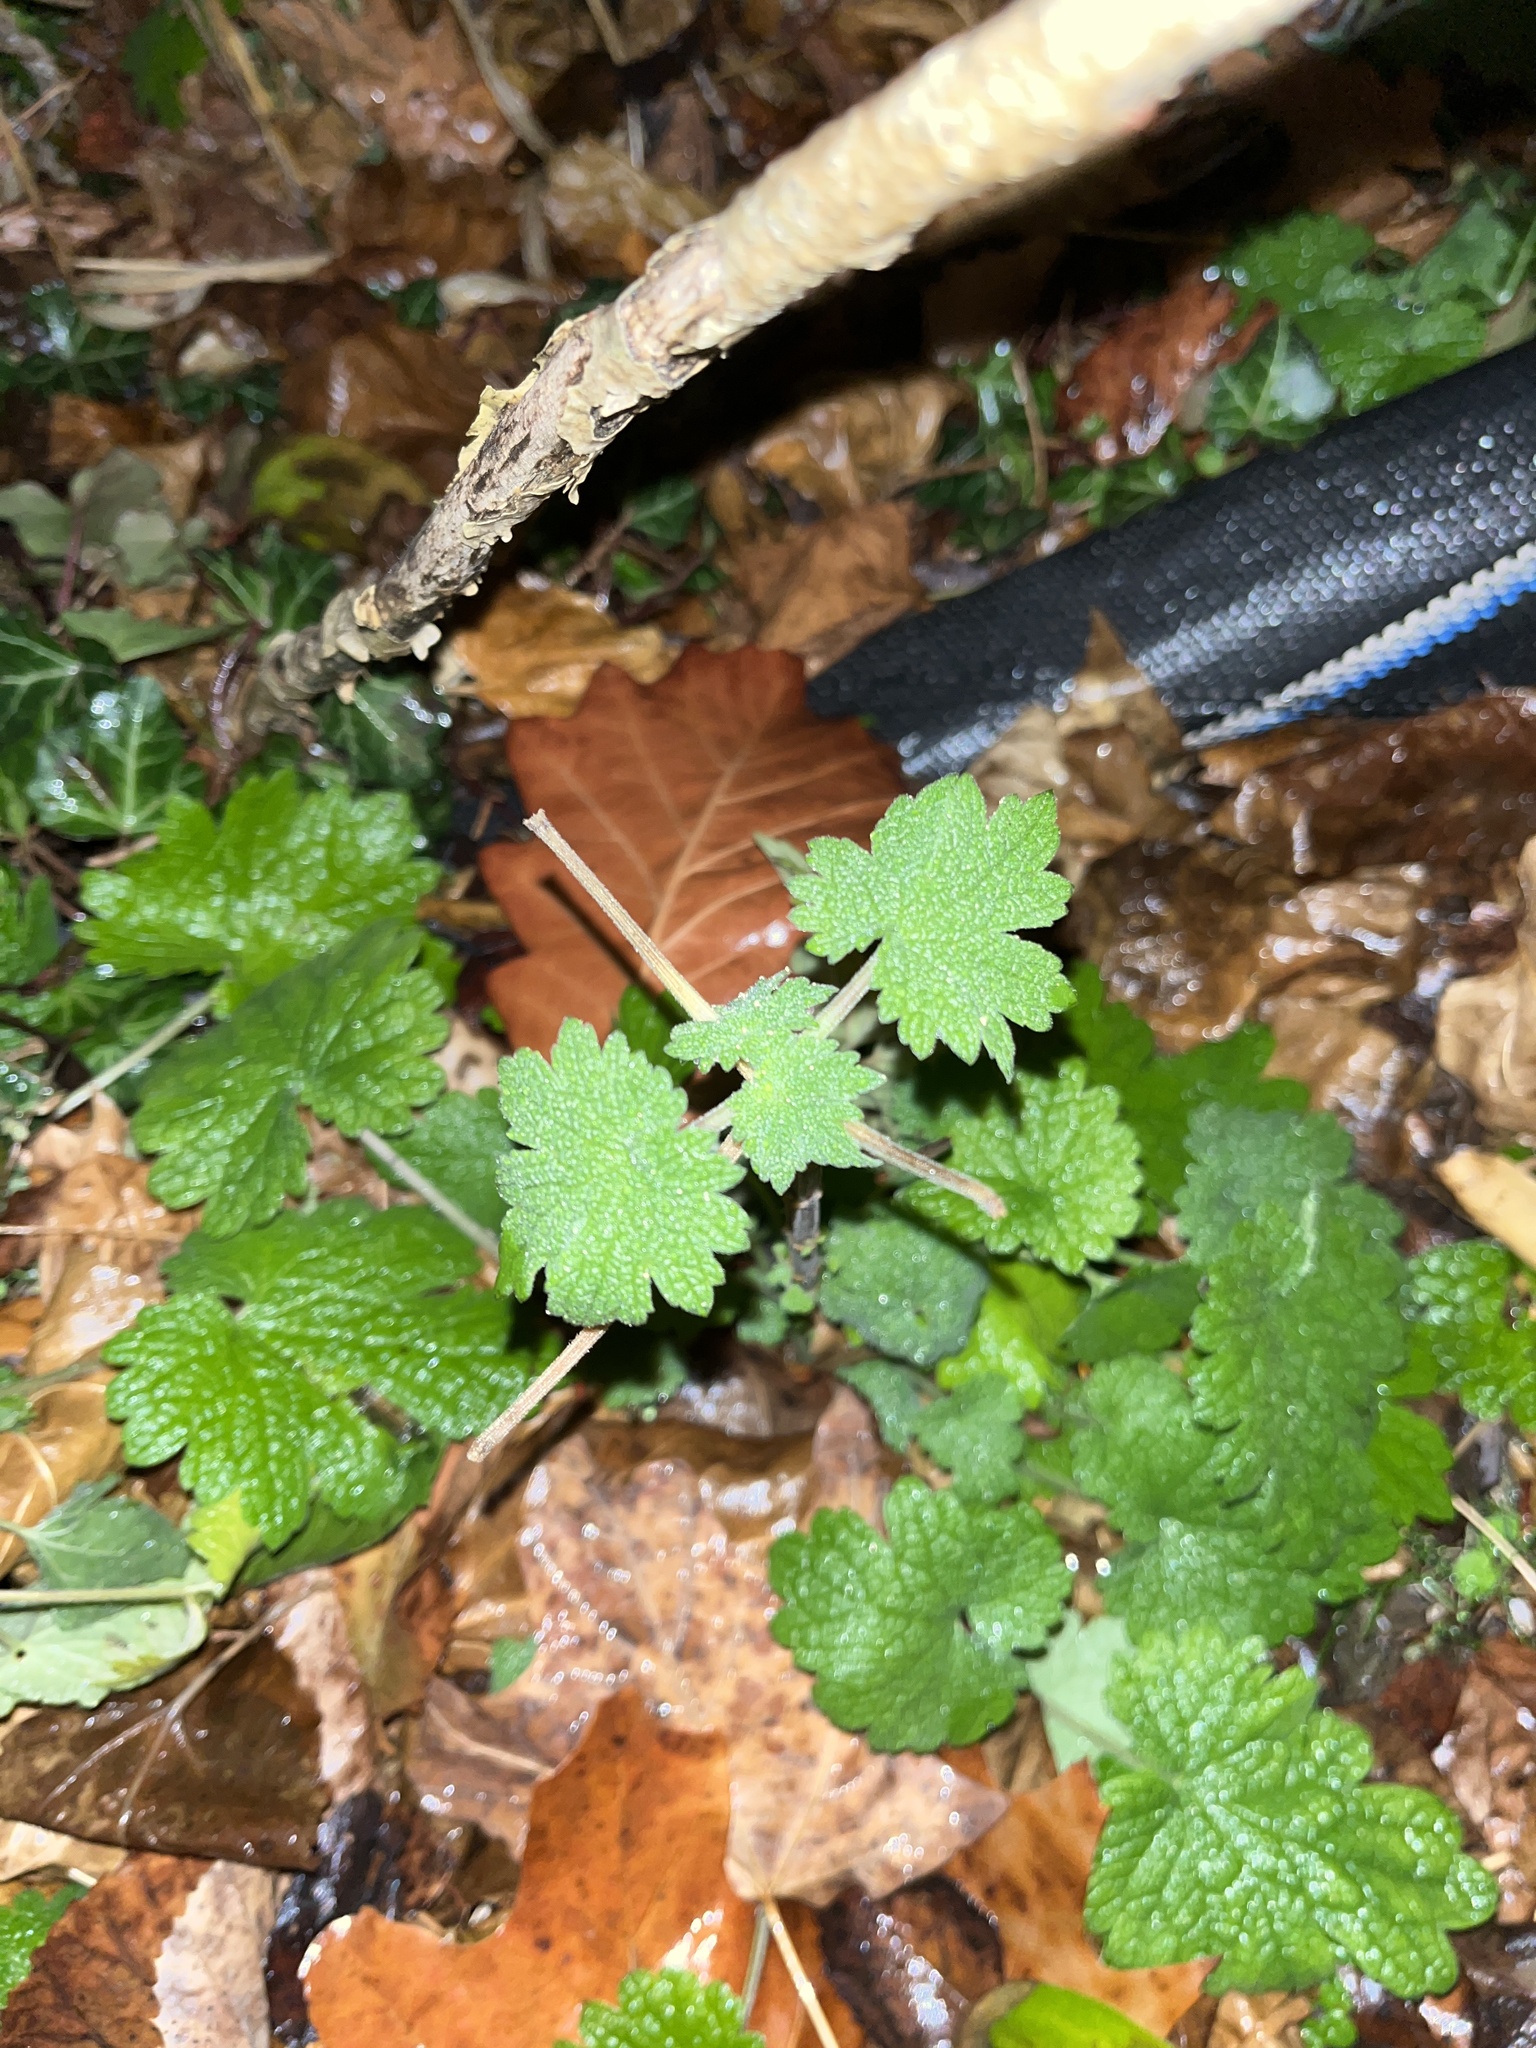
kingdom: Plantae
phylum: Tracheophyta
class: Magnoliopsida
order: Lamiales
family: Lamiaceae
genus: Leonurus
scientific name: Leonurus cardiaca
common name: Motherwort
